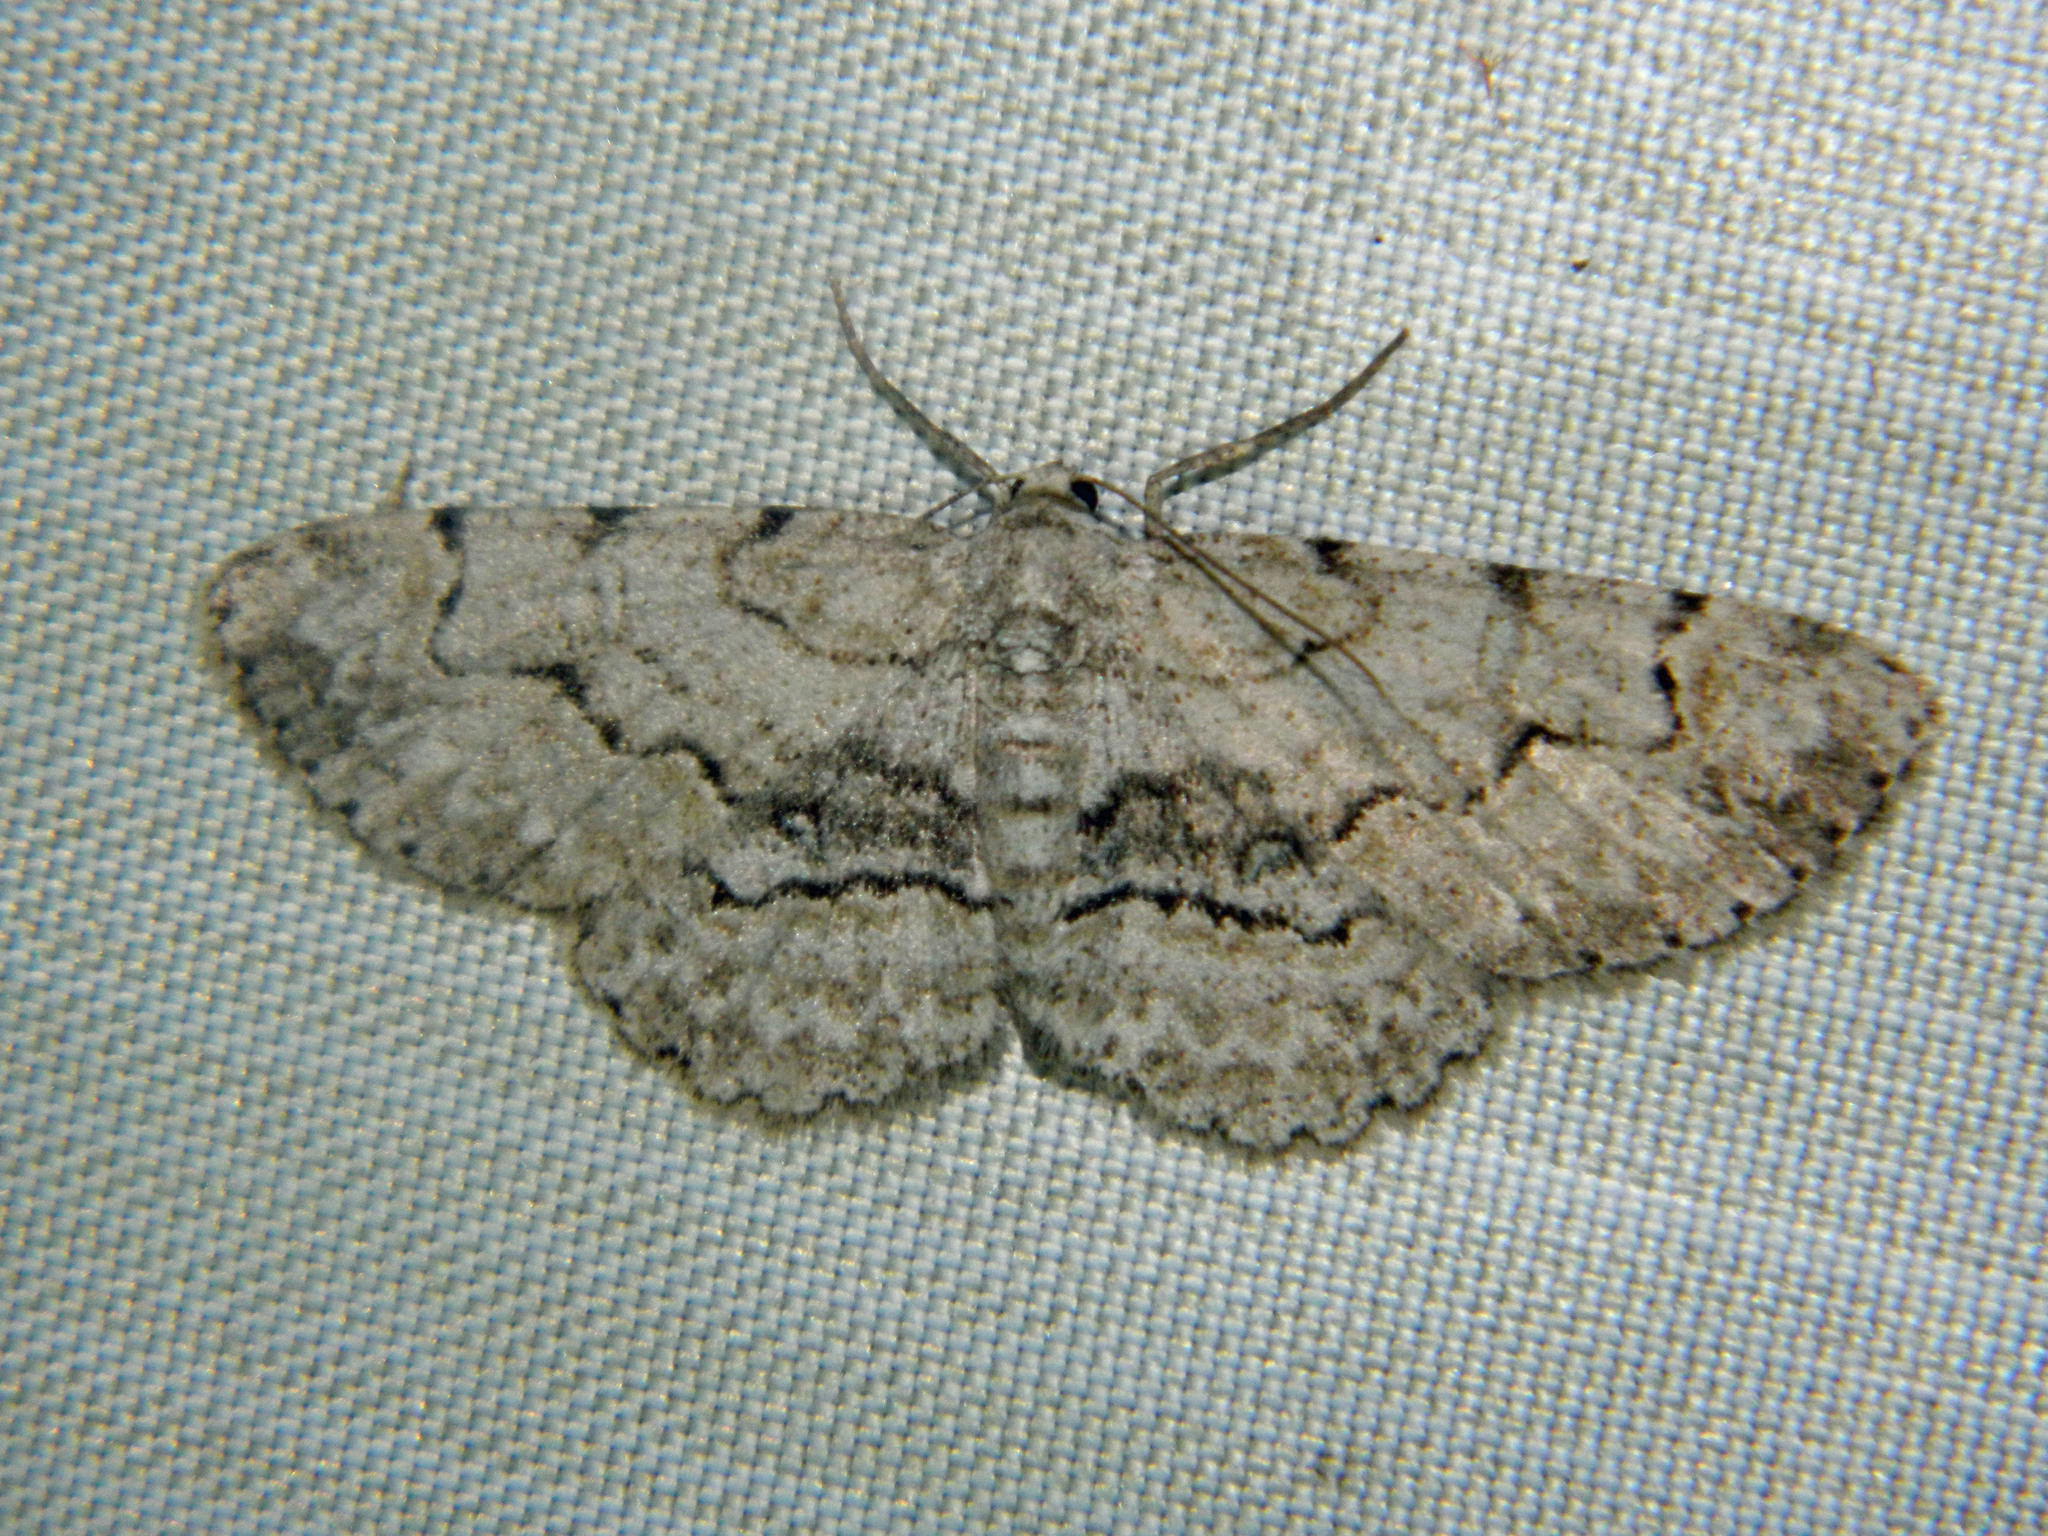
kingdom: Animalia
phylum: Arthropoda
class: Insecta
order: Lepidoptera
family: Geometridae
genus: Iridopsis
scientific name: Iridopsis ephyraria
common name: Pale-winged gray
